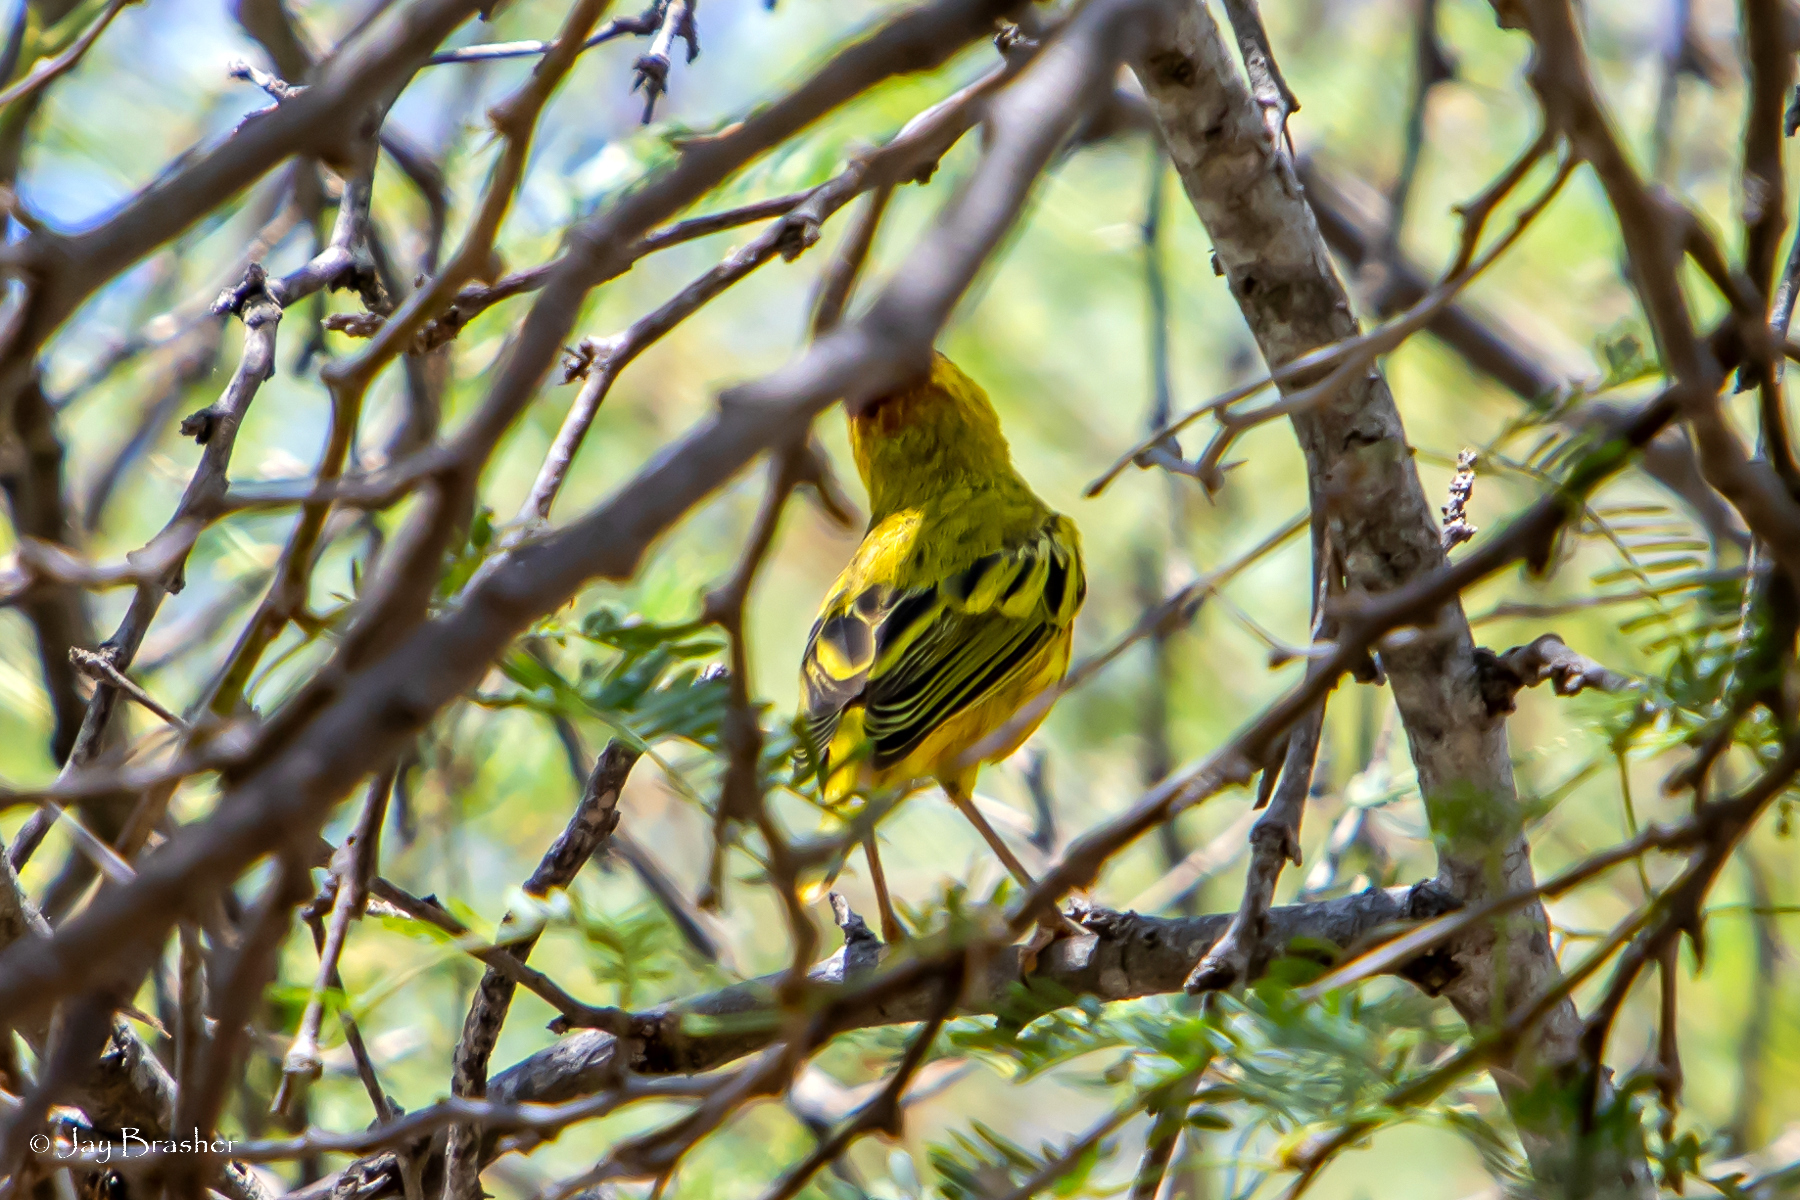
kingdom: Animalia
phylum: Chordata
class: Aves
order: Passeriformes
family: Parulidae
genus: Setophaga
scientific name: Setophaga petechia
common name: Yellow warbler
